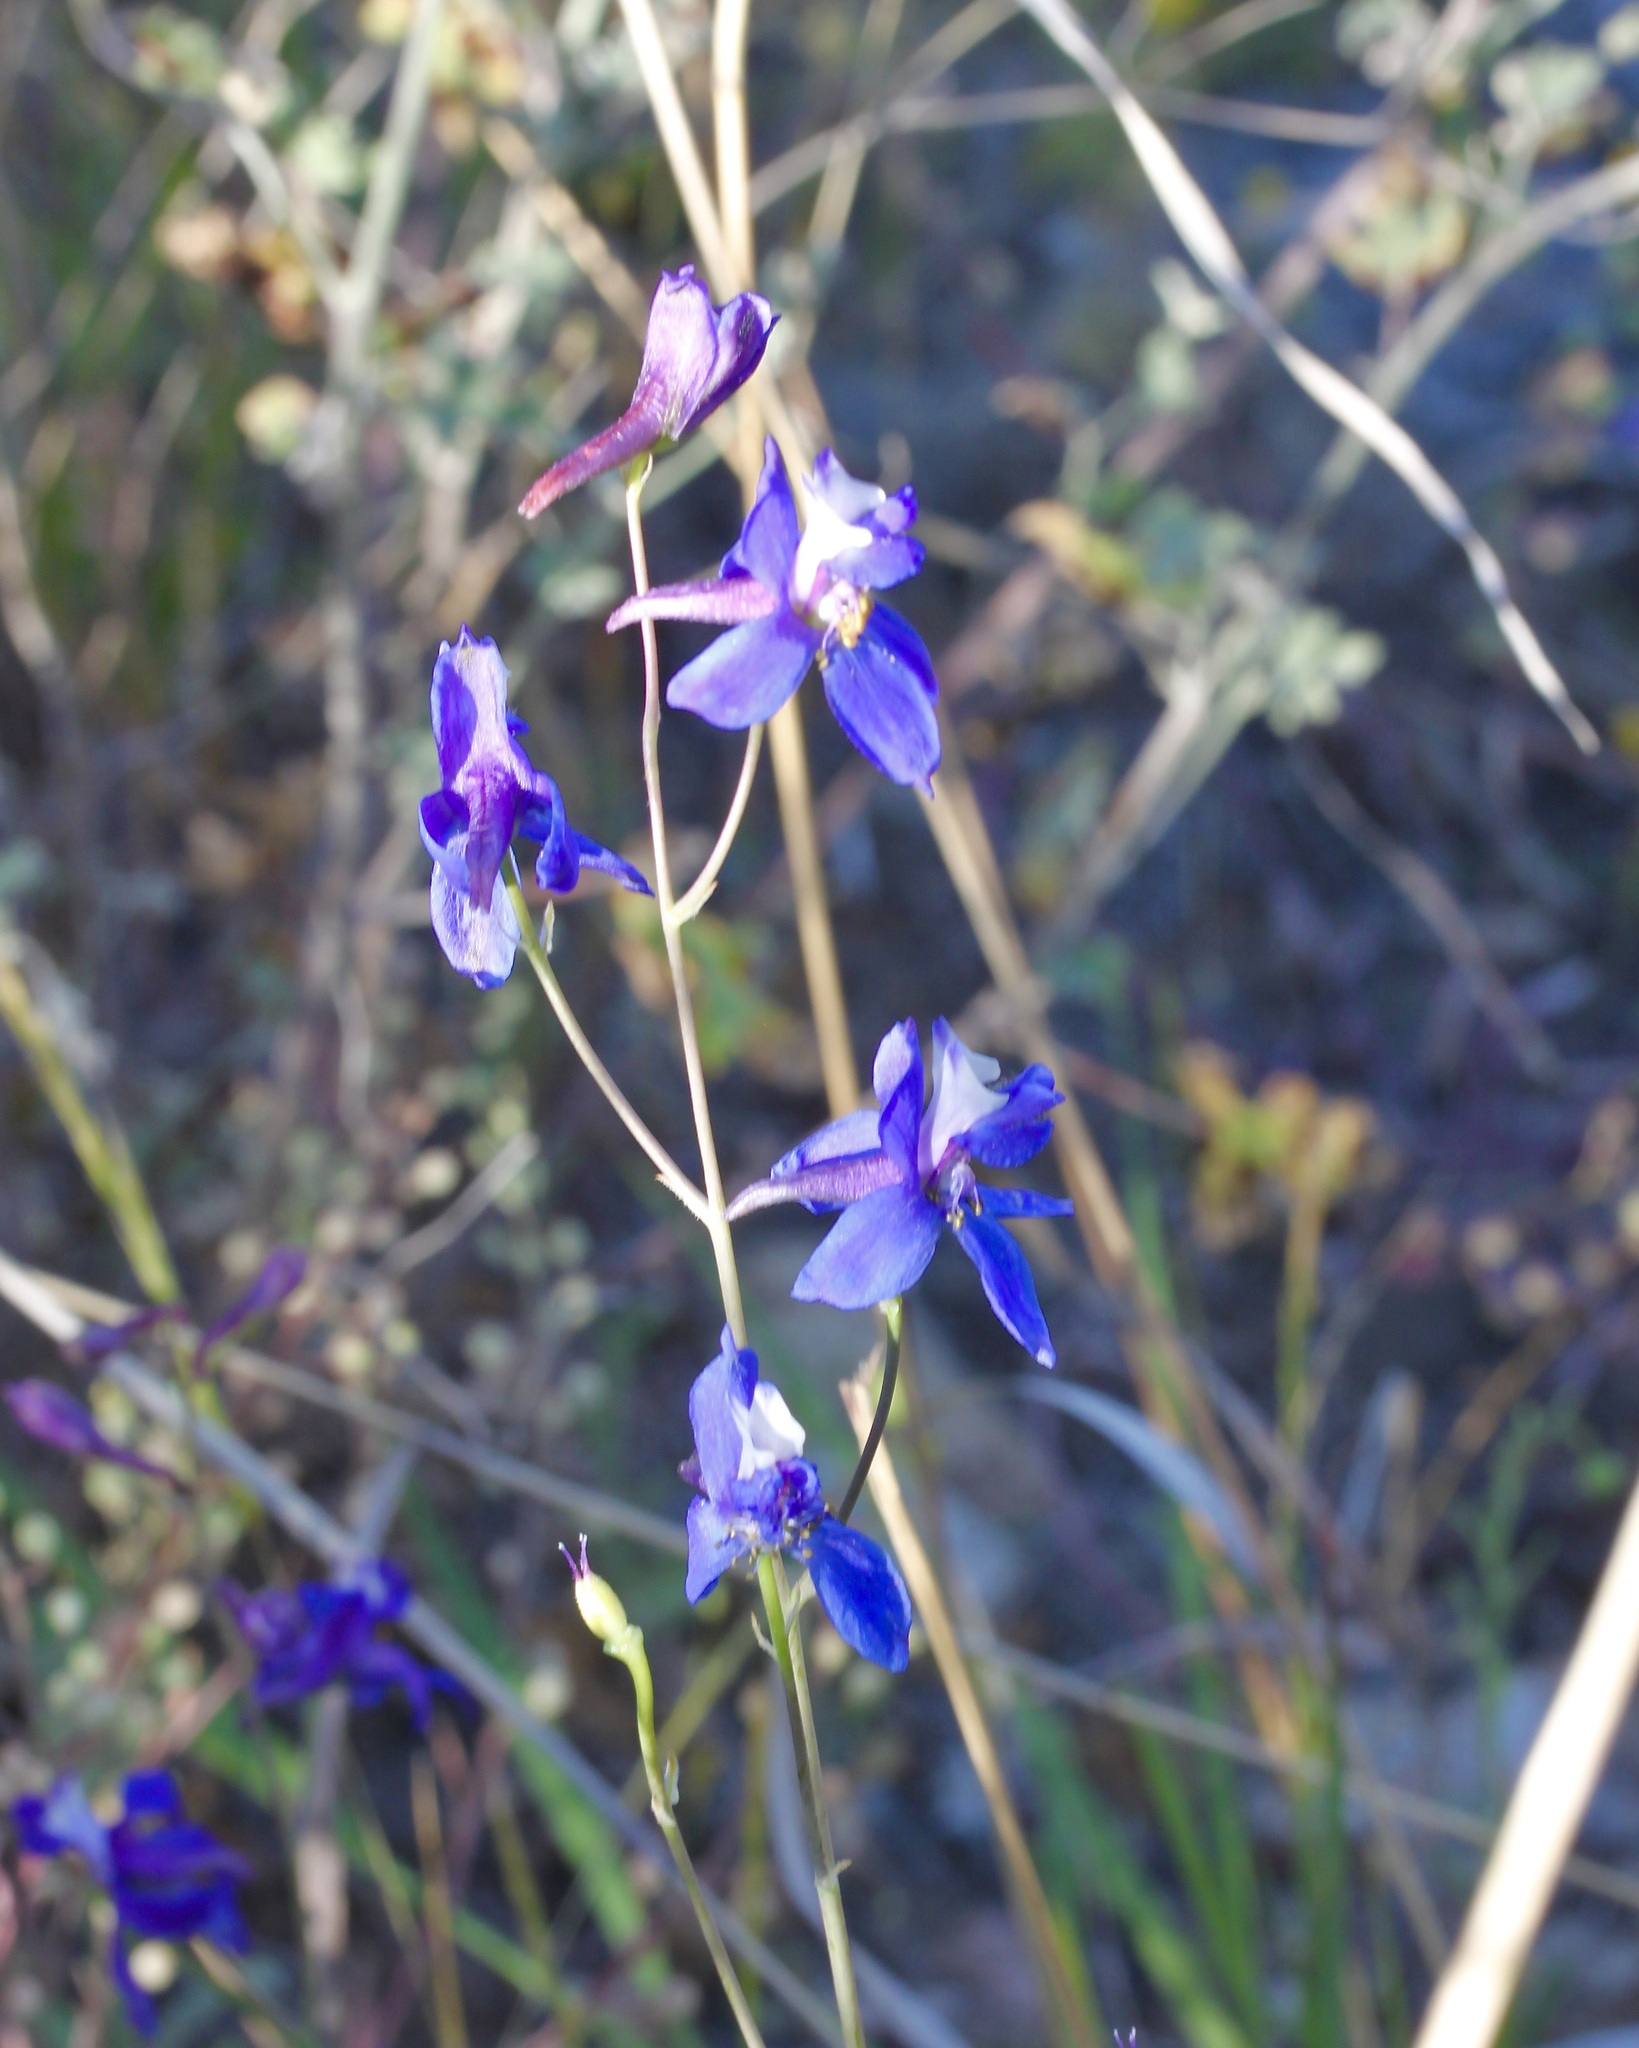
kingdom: Plantae
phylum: Tracheophyta
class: Magnoliopsida
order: Ranunculales
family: Ranunculaceae
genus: Delphinium
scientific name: Delphinium scaposum
